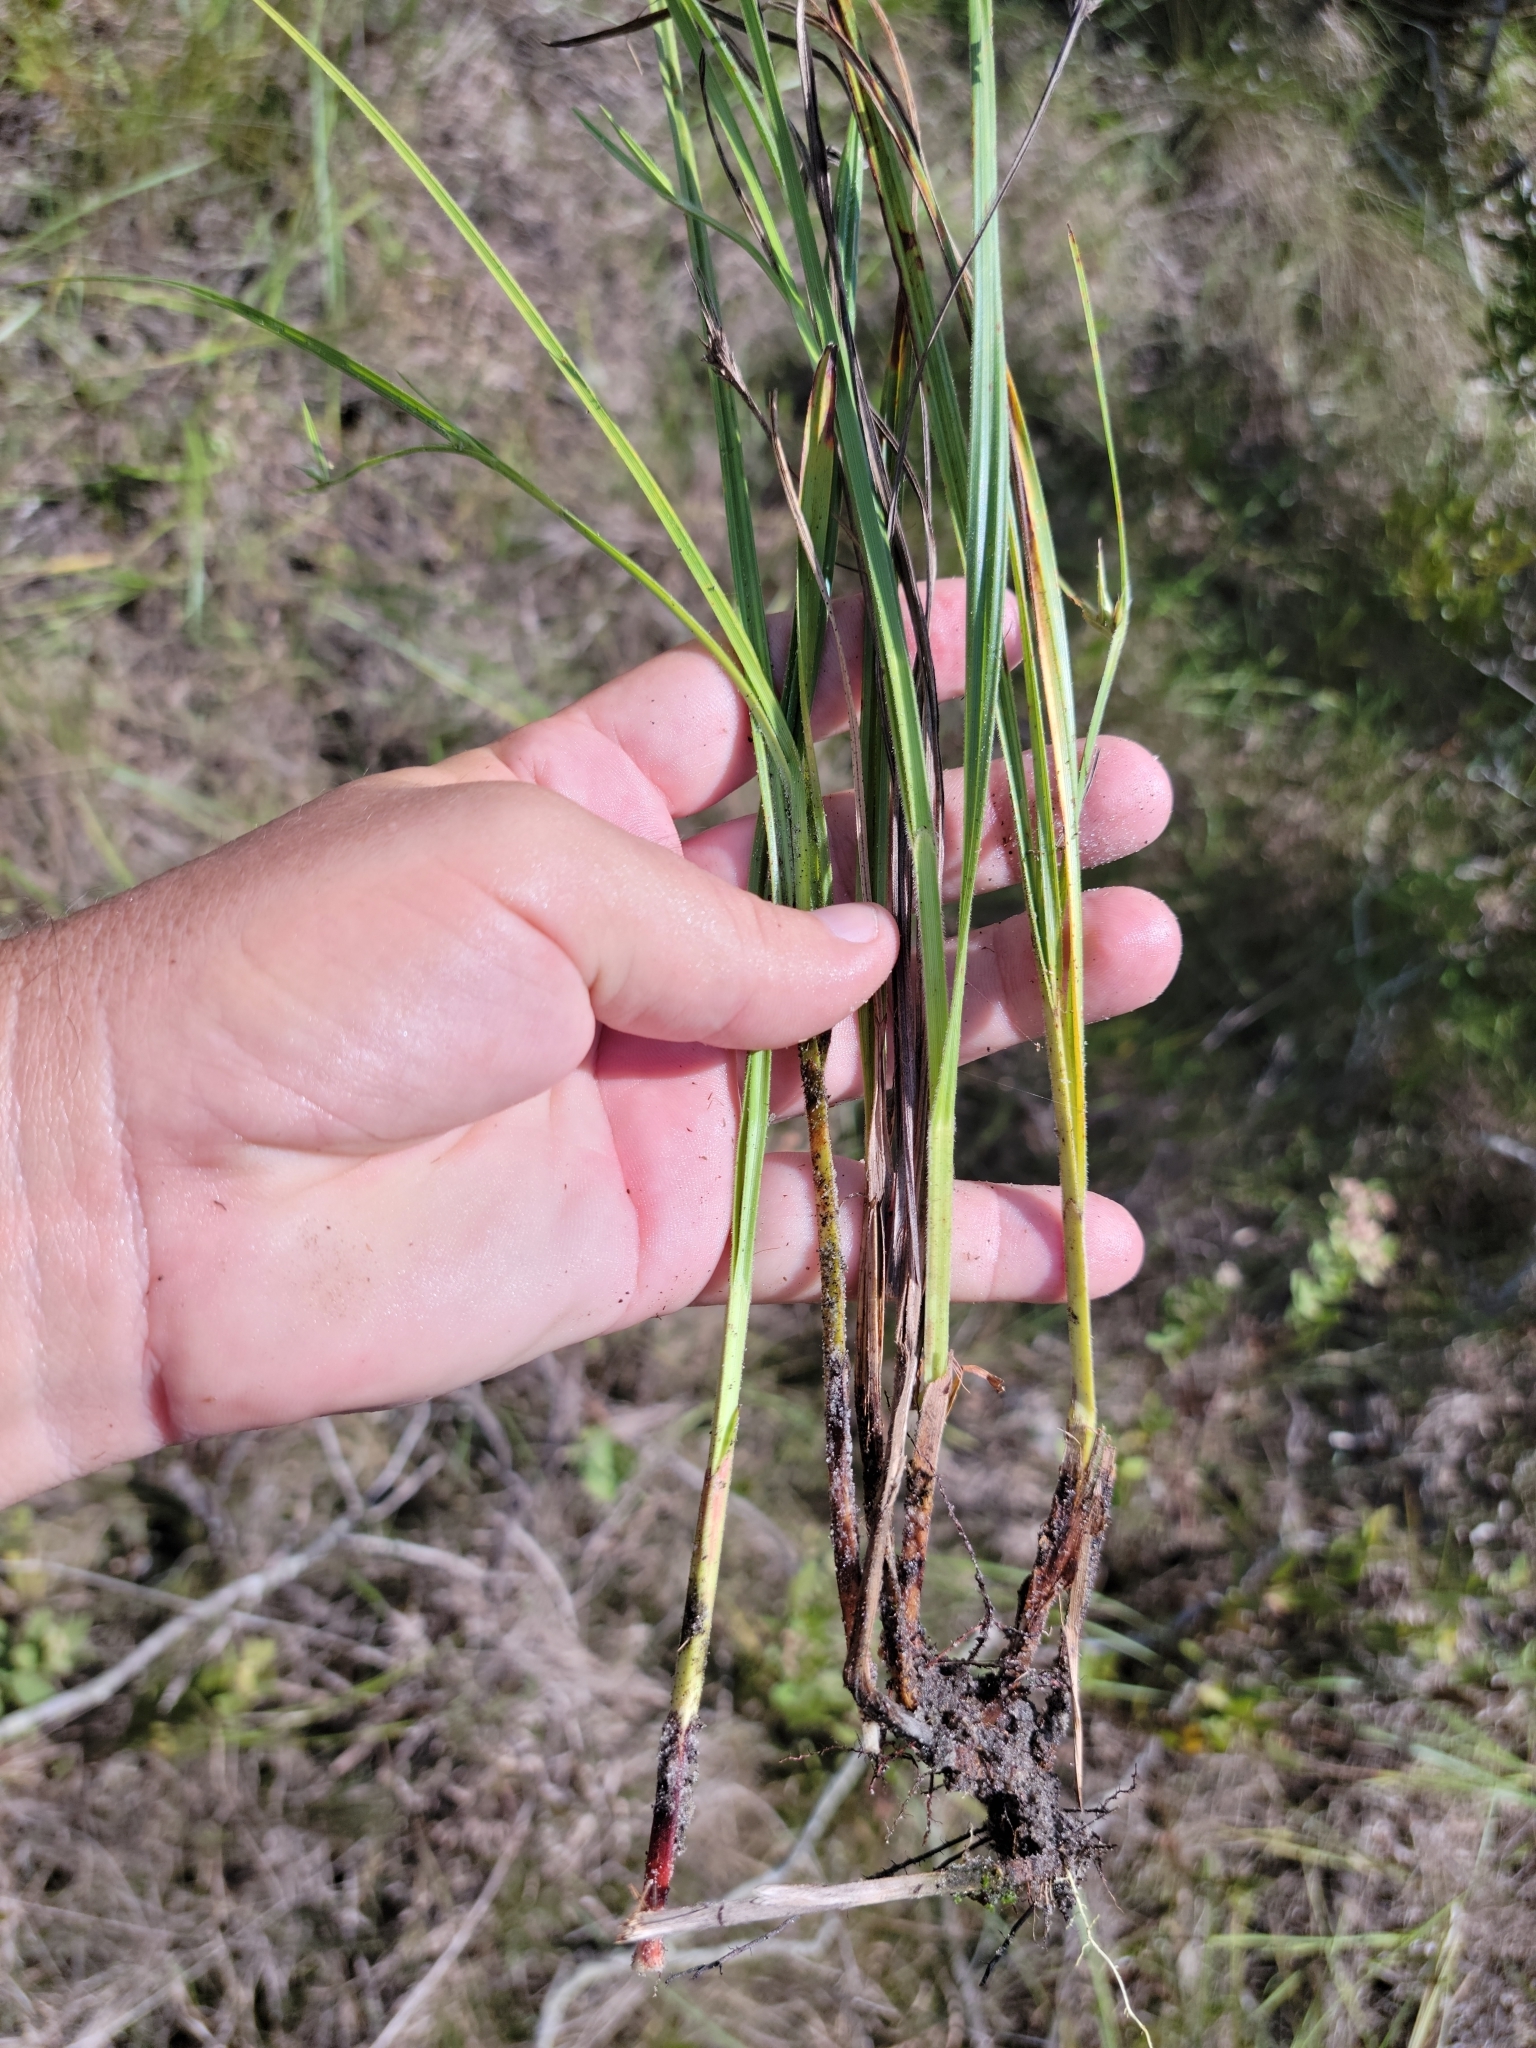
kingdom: Plantae
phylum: Tracheophyta
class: Liliopsida
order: Poales
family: Cyperaceae
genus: Scleria
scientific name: Scleria ciliata
